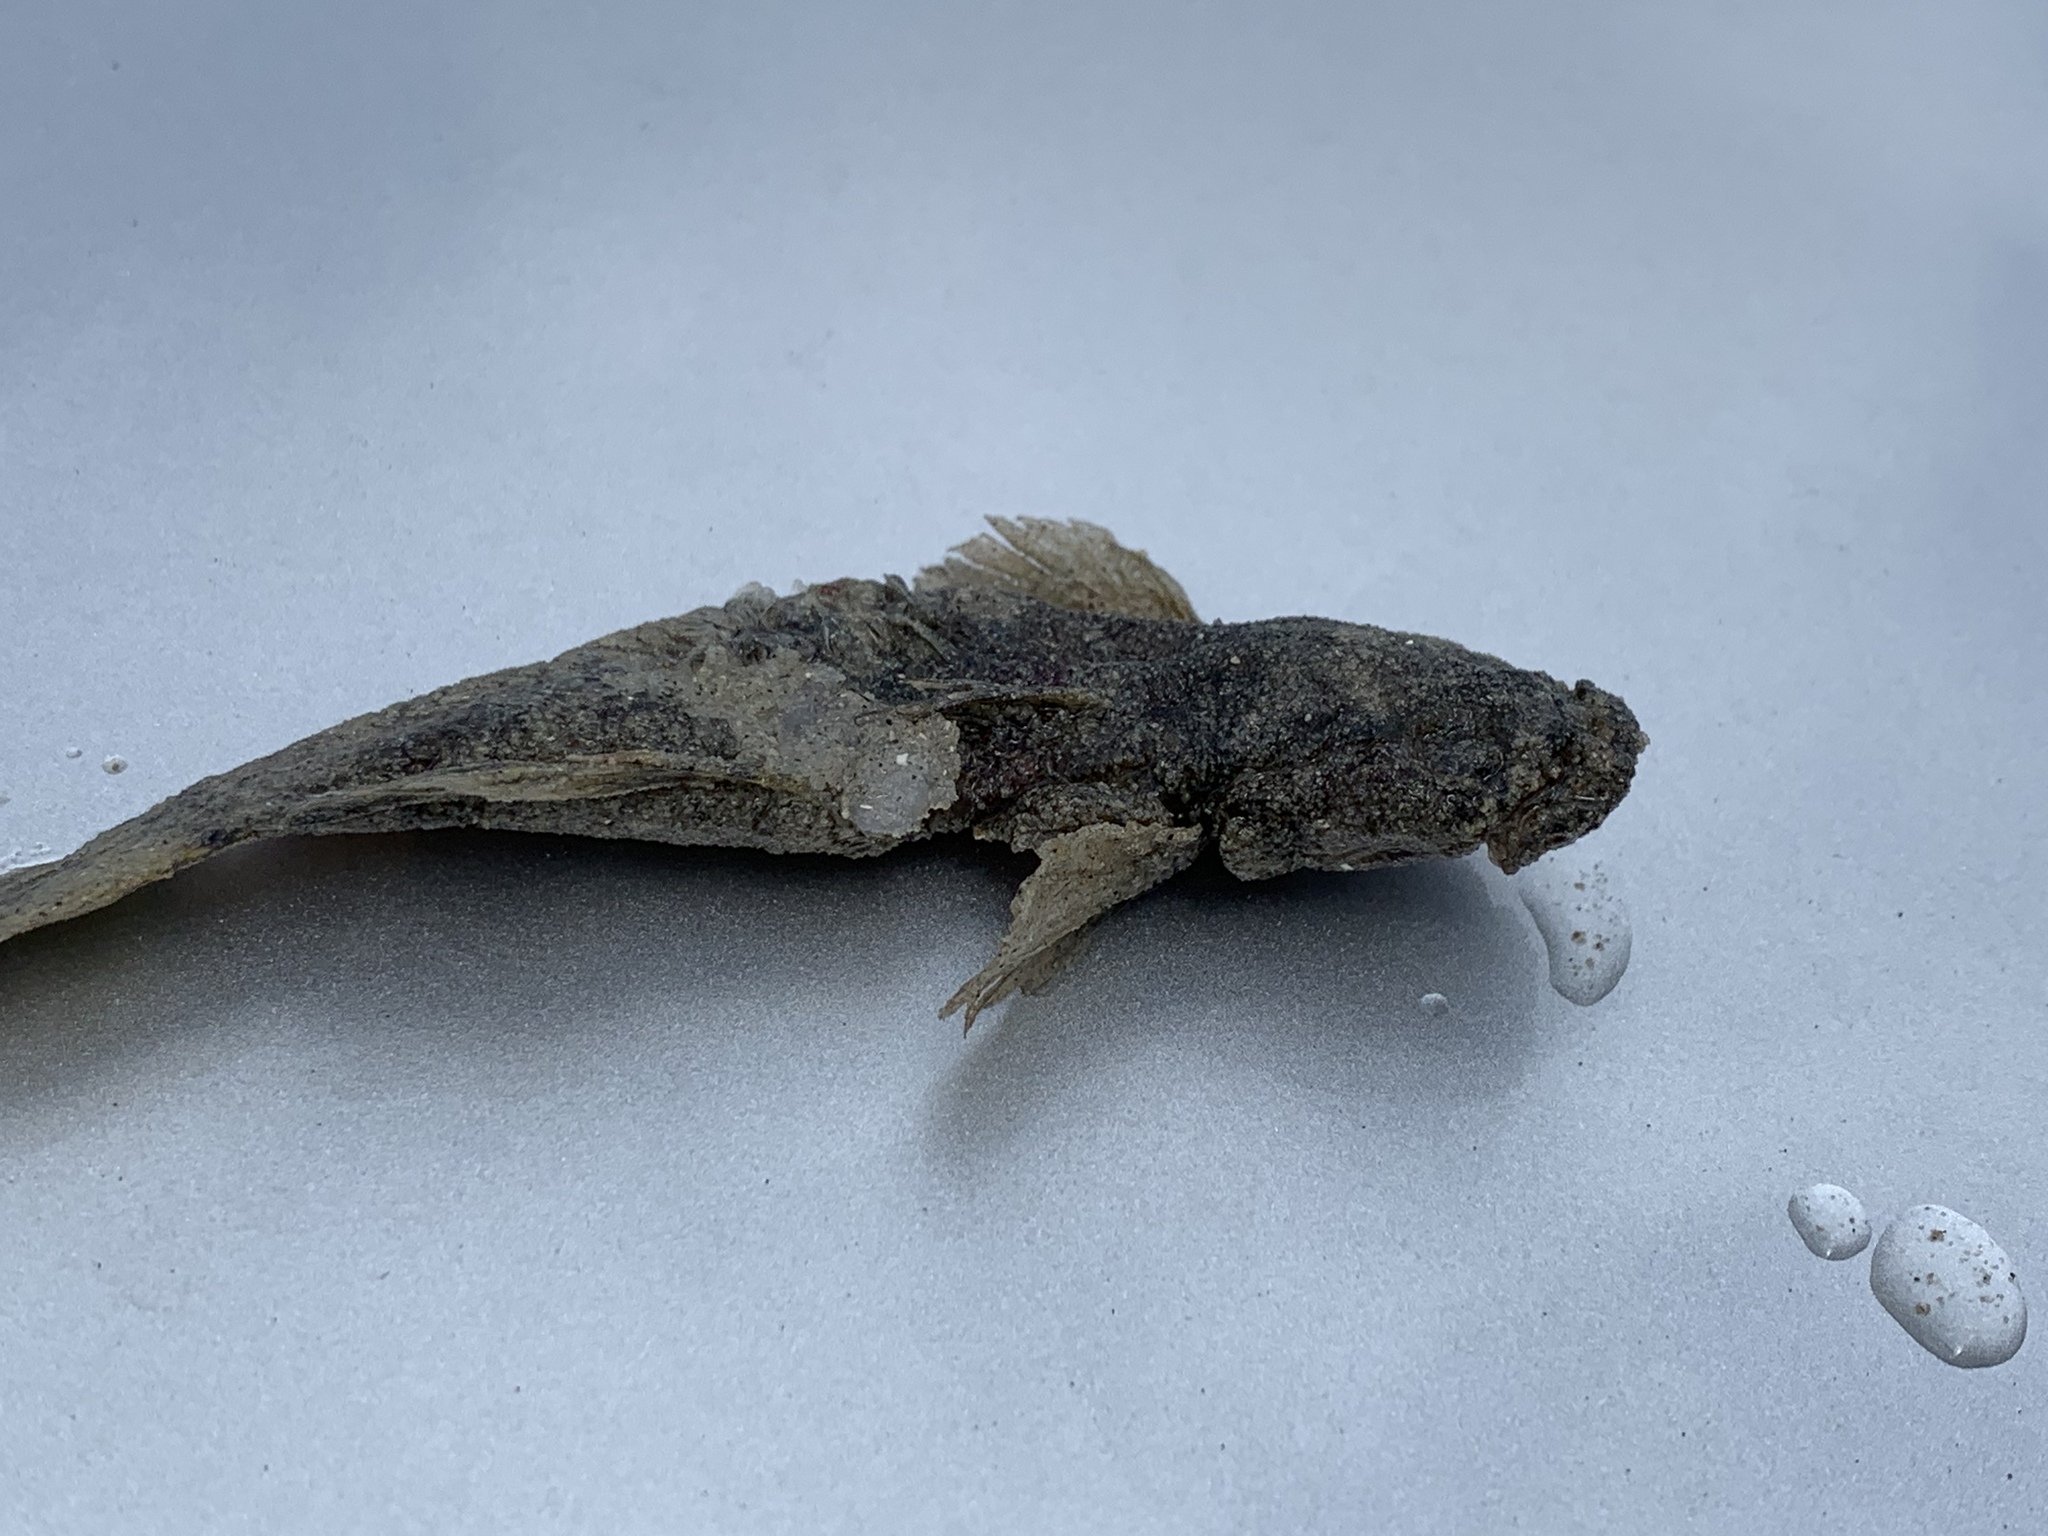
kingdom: Animalia
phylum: Chordata
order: Batrachoidiformes
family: Batrachoididae
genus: Opsanus
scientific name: Opsanus beta
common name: Gulf toadfish
